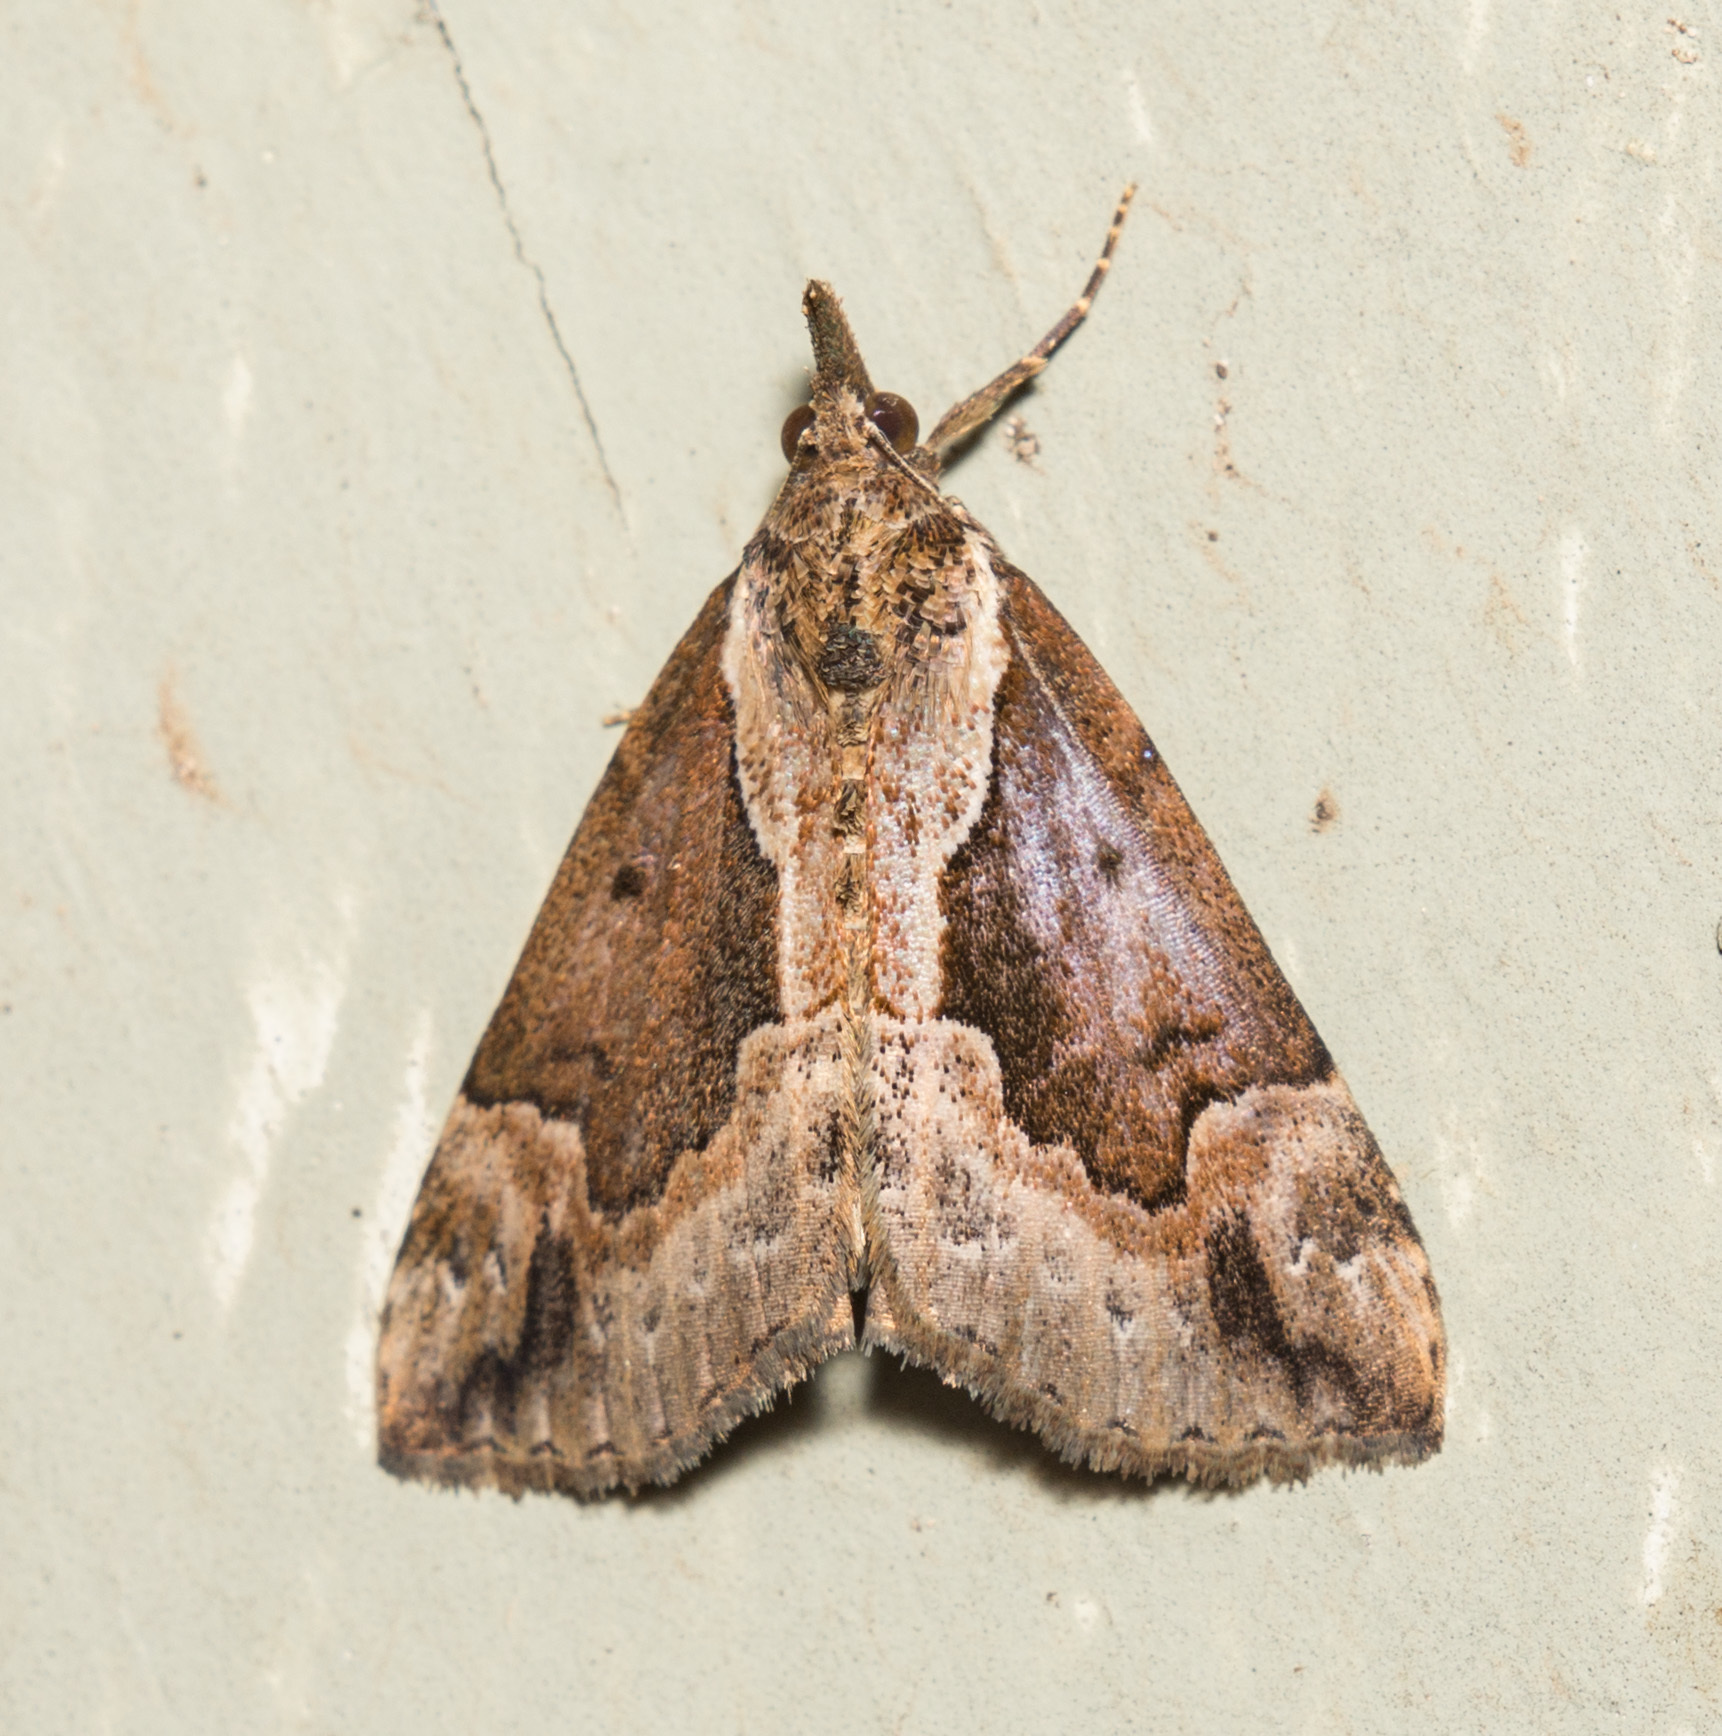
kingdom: Animalia
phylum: Arthropoda
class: Insecta
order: Lepidoptera
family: Erebidae
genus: Hypena
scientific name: Hypena baltimoralis
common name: Baltimore snout
